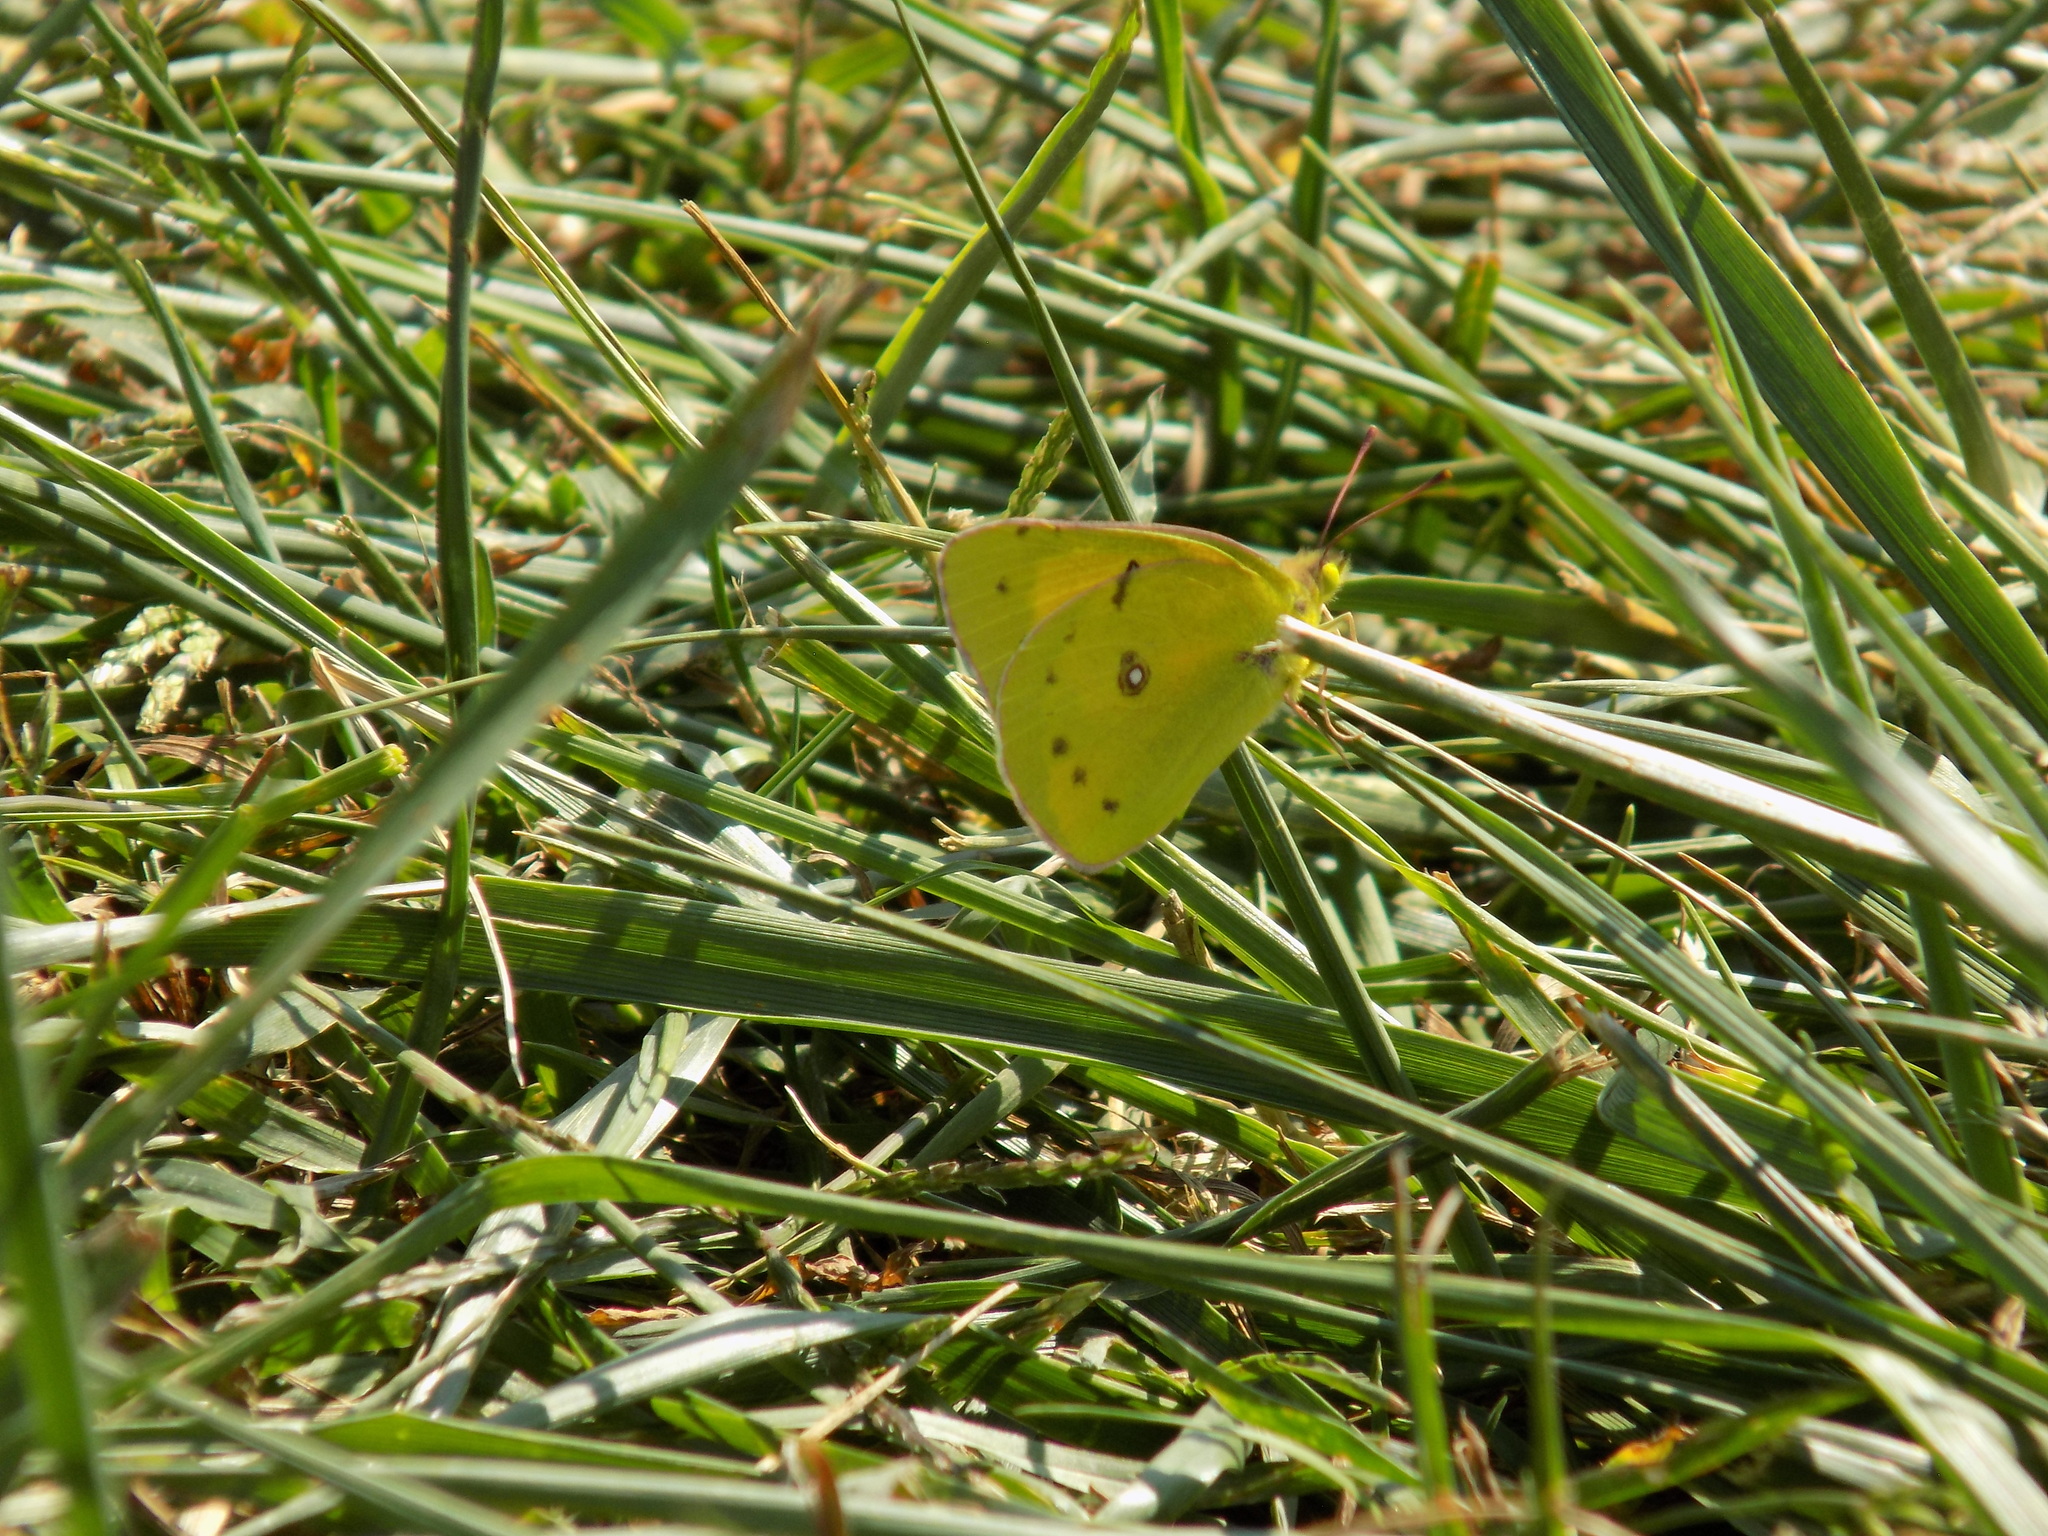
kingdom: Animalia
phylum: Arthropoda
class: Insecta
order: Lepidoptera
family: Pieridae
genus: Colias
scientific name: Colias eurytheme
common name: Alfalfa butterfly
